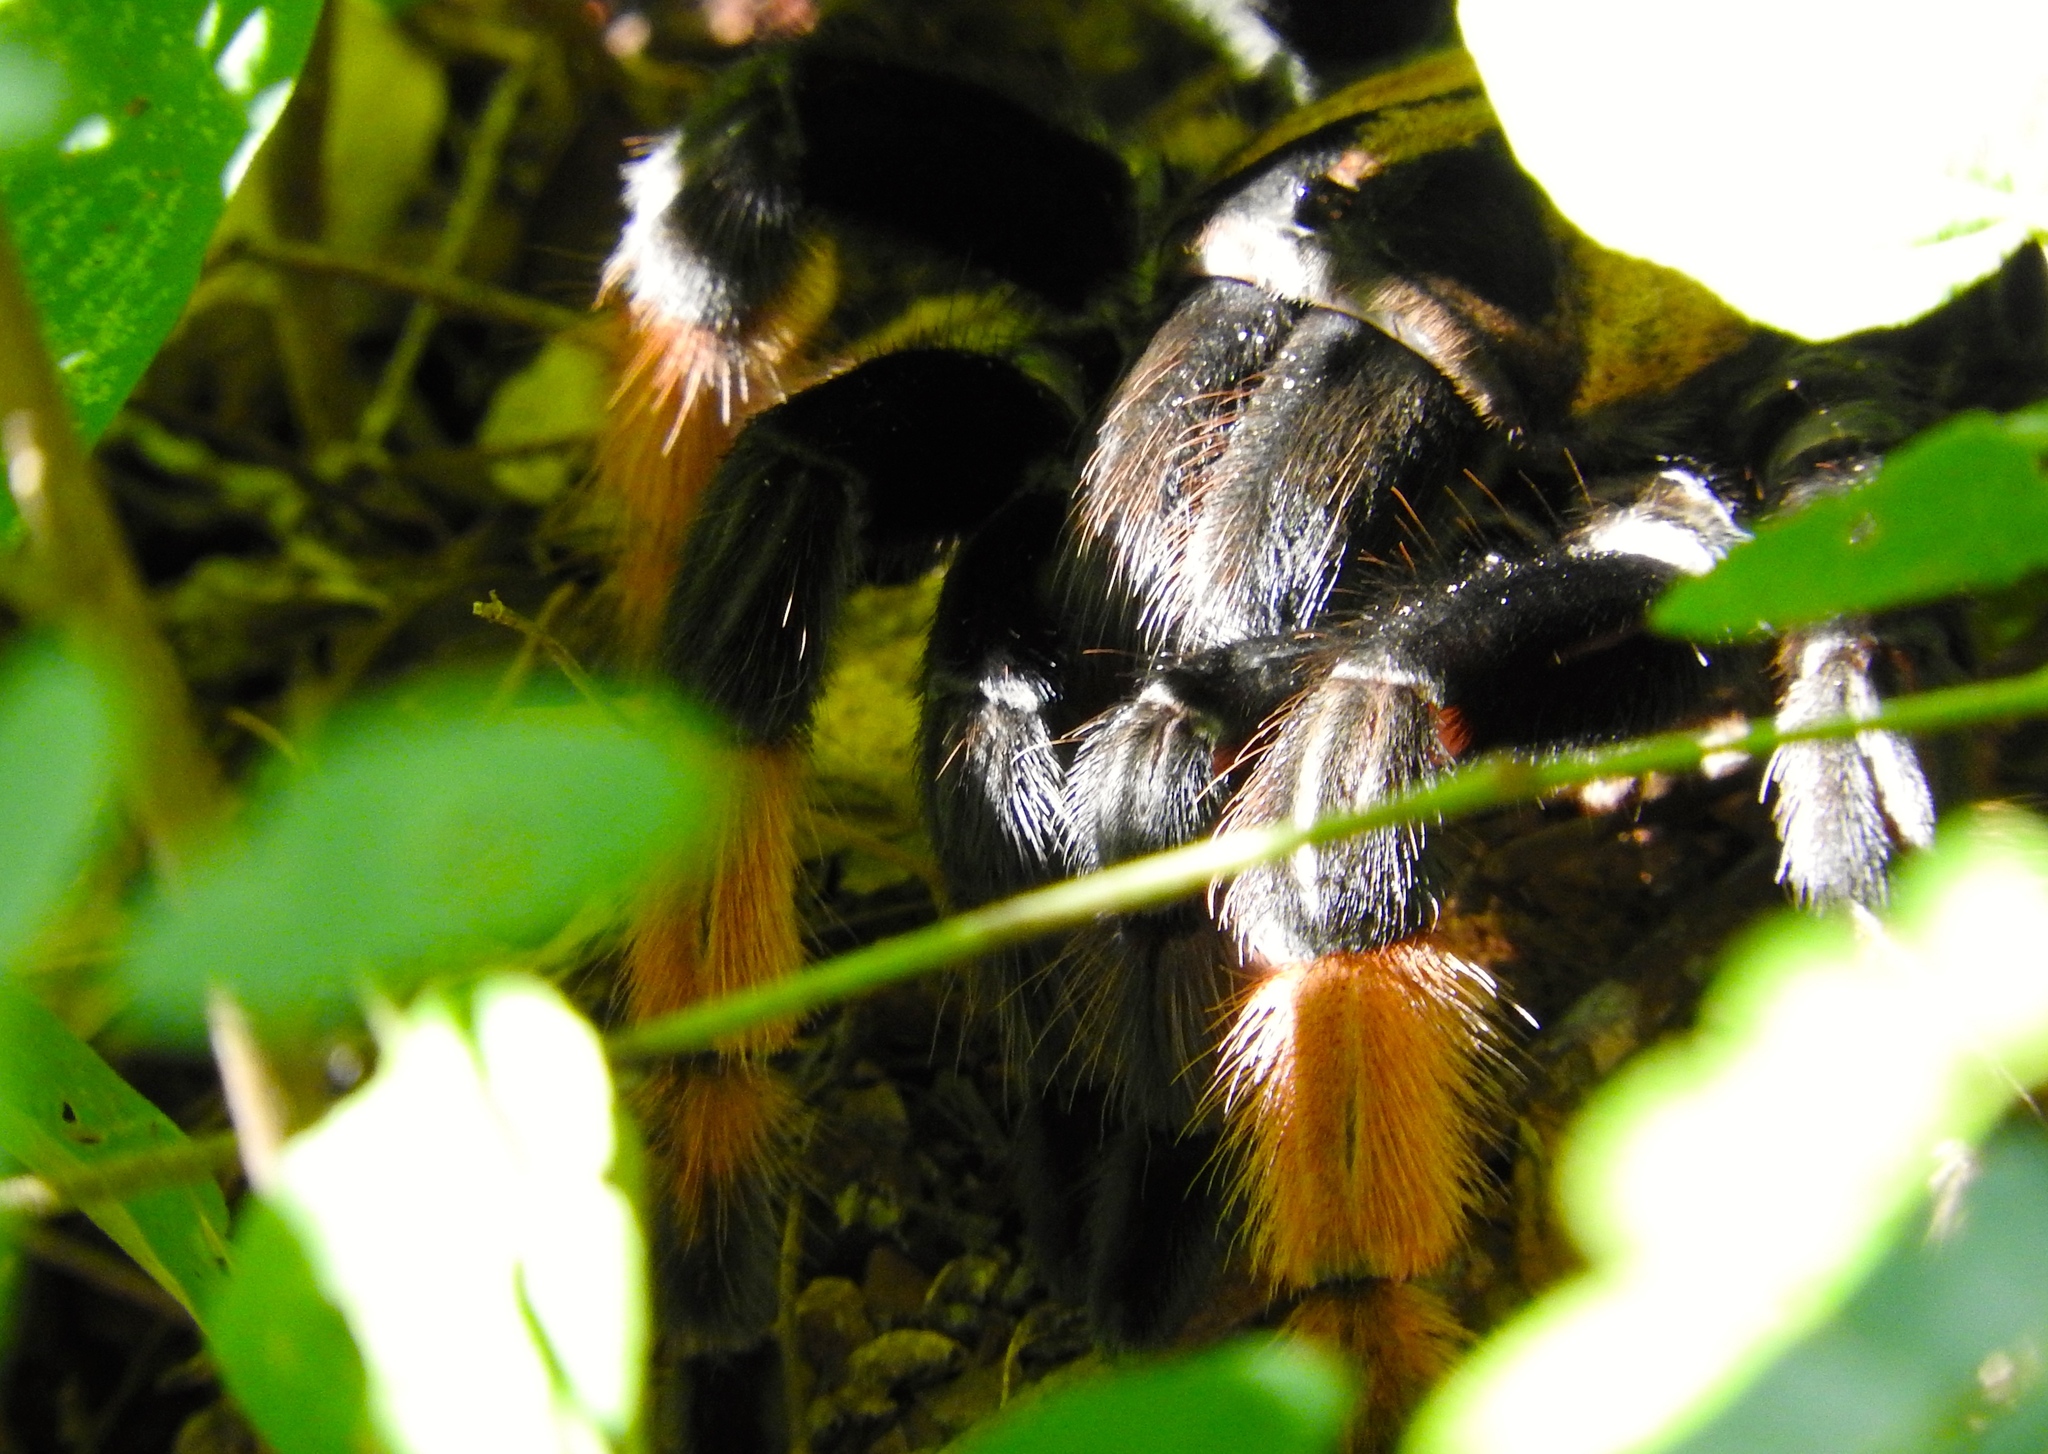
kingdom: Animalia
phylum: Arthropoda
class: Arachnida
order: Araneae
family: Theraphosidae
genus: Brachypelma
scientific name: Brachypelma emilia
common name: Mexican redleg
